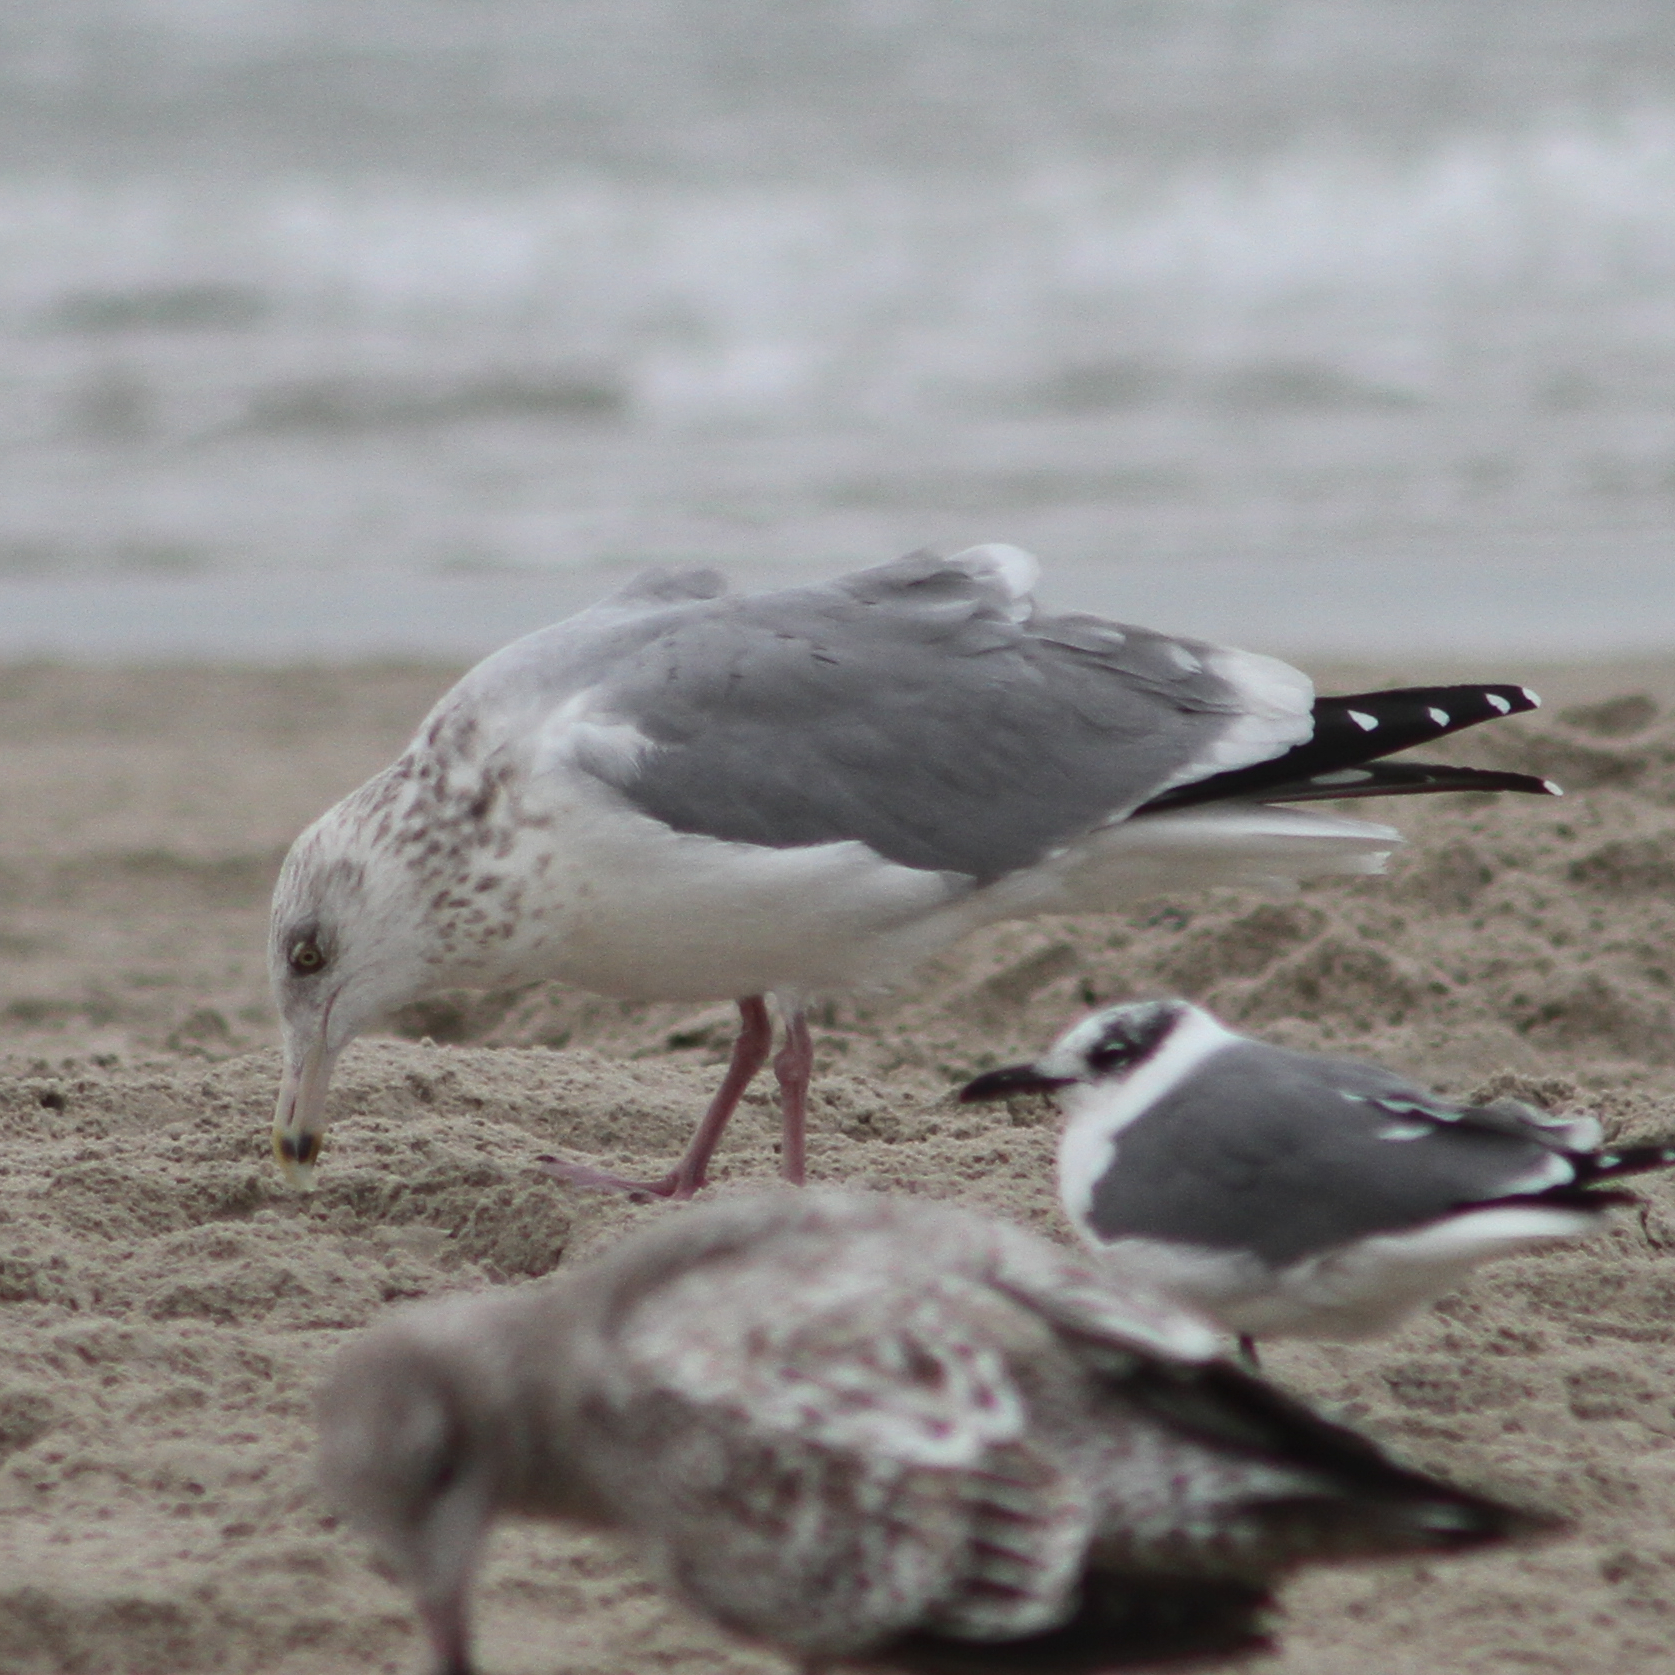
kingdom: Animalia
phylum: Chordata
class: Aves
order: Charadriiformes
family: Laridae
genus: Larus
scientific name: Larus argentatus
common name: Herring gull
